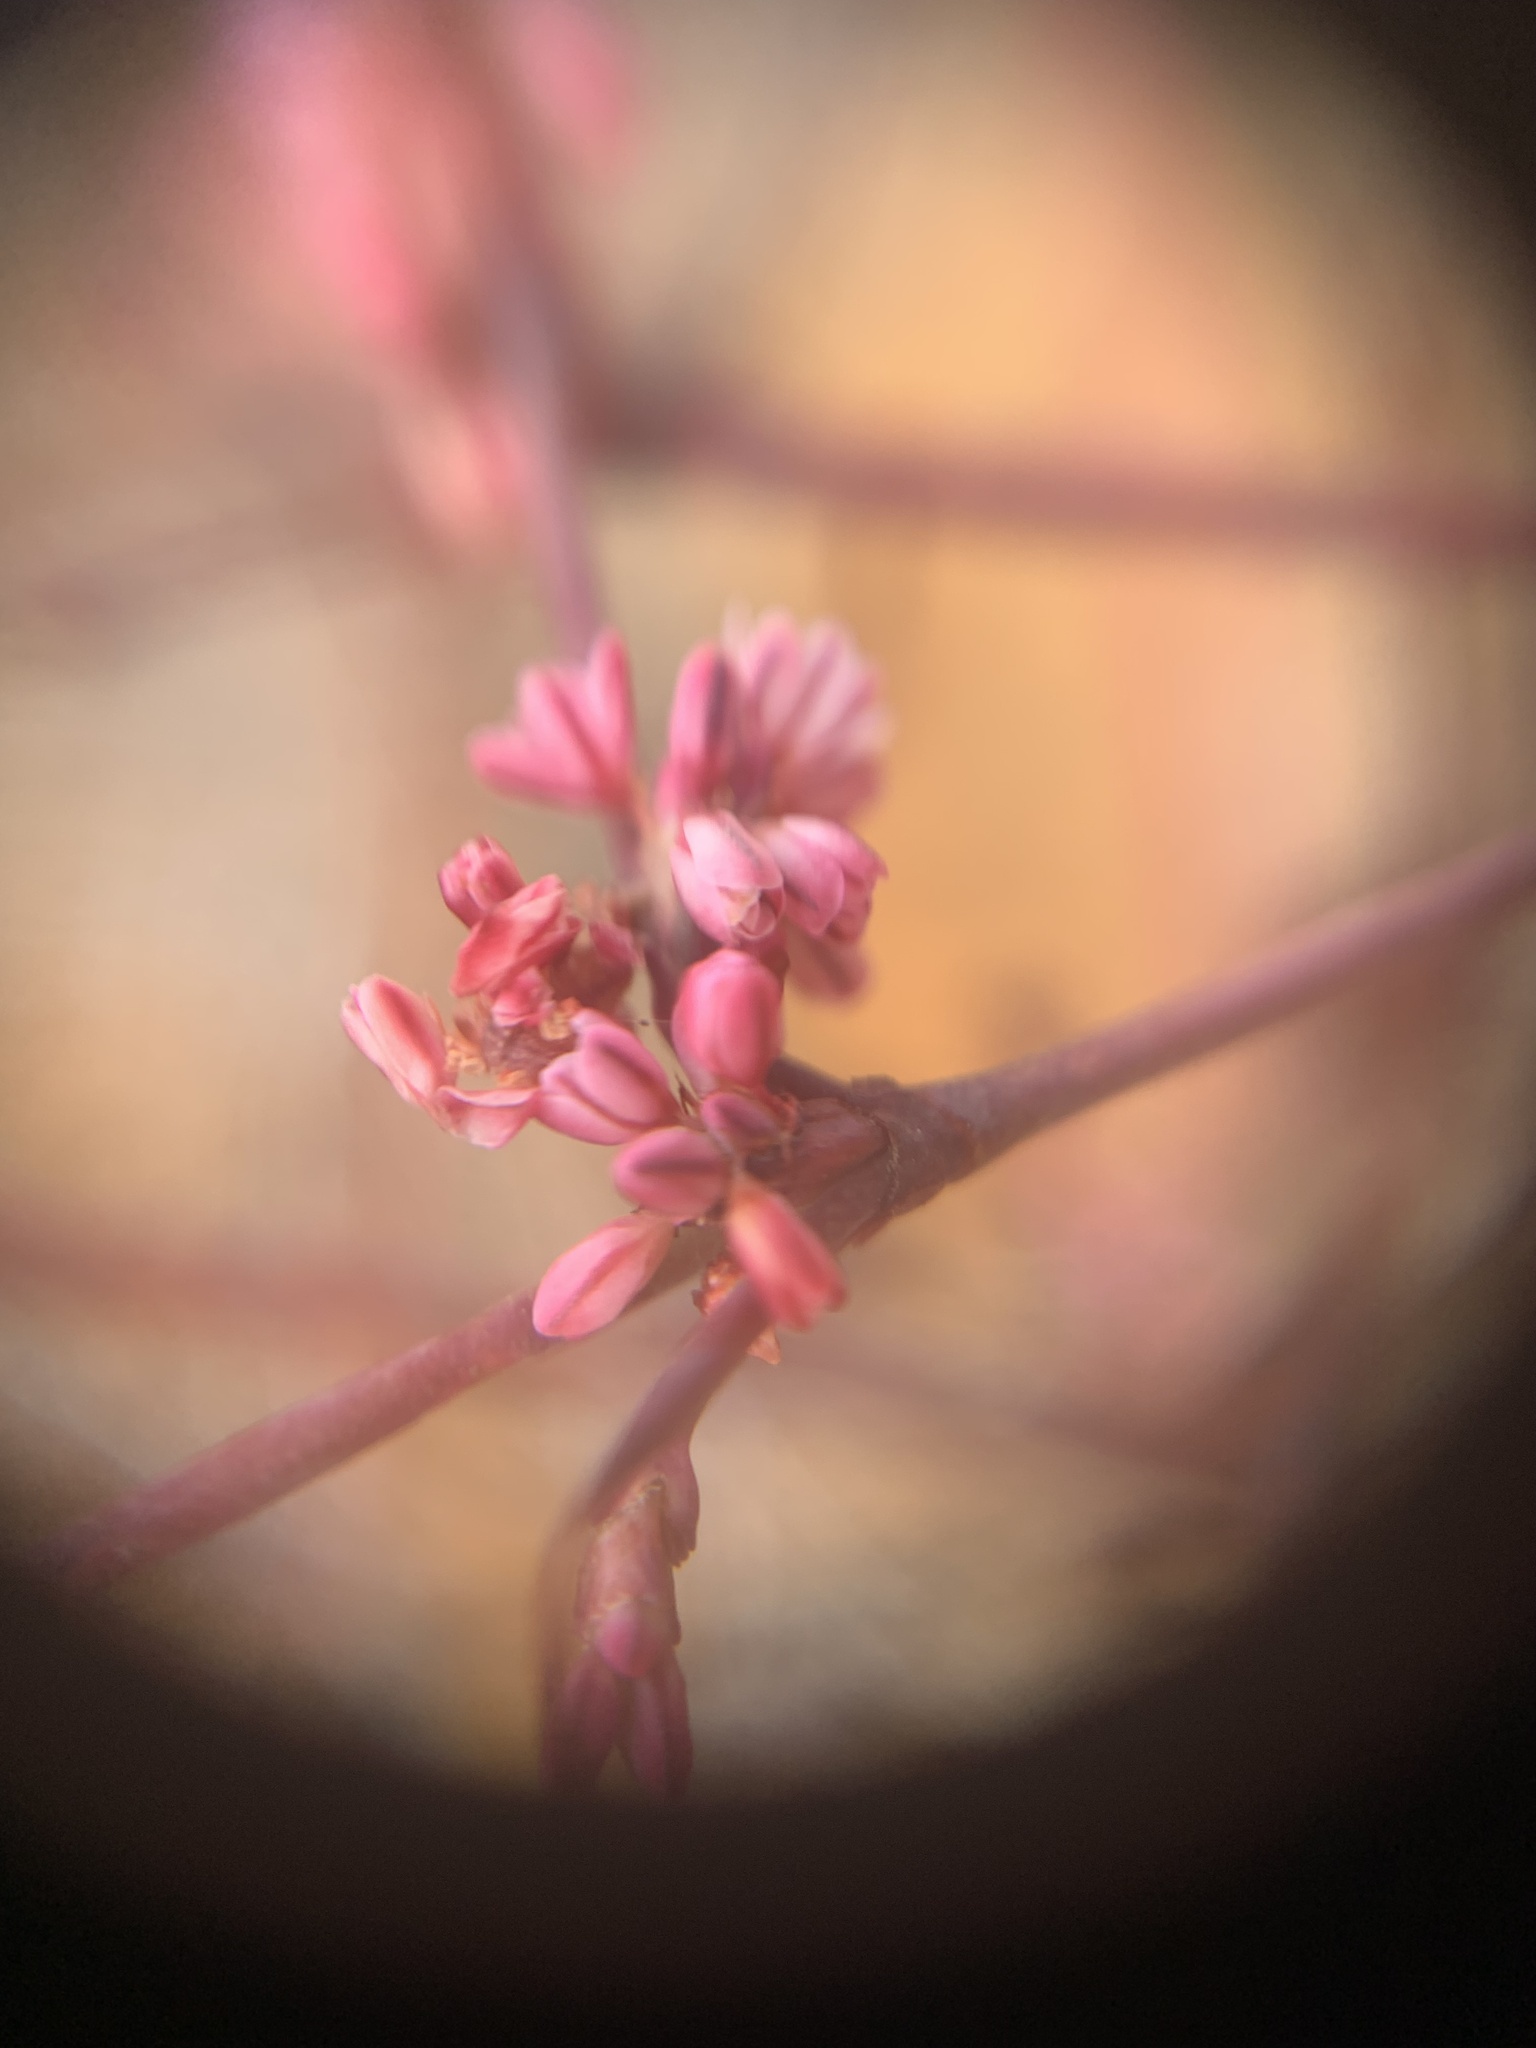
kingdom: Plantae
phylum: Tracheophyta
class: Magnoliopsida
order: Caryophyllales
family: Polygonaceae
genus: Eriogonum
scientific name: Eriogonum luteolum
